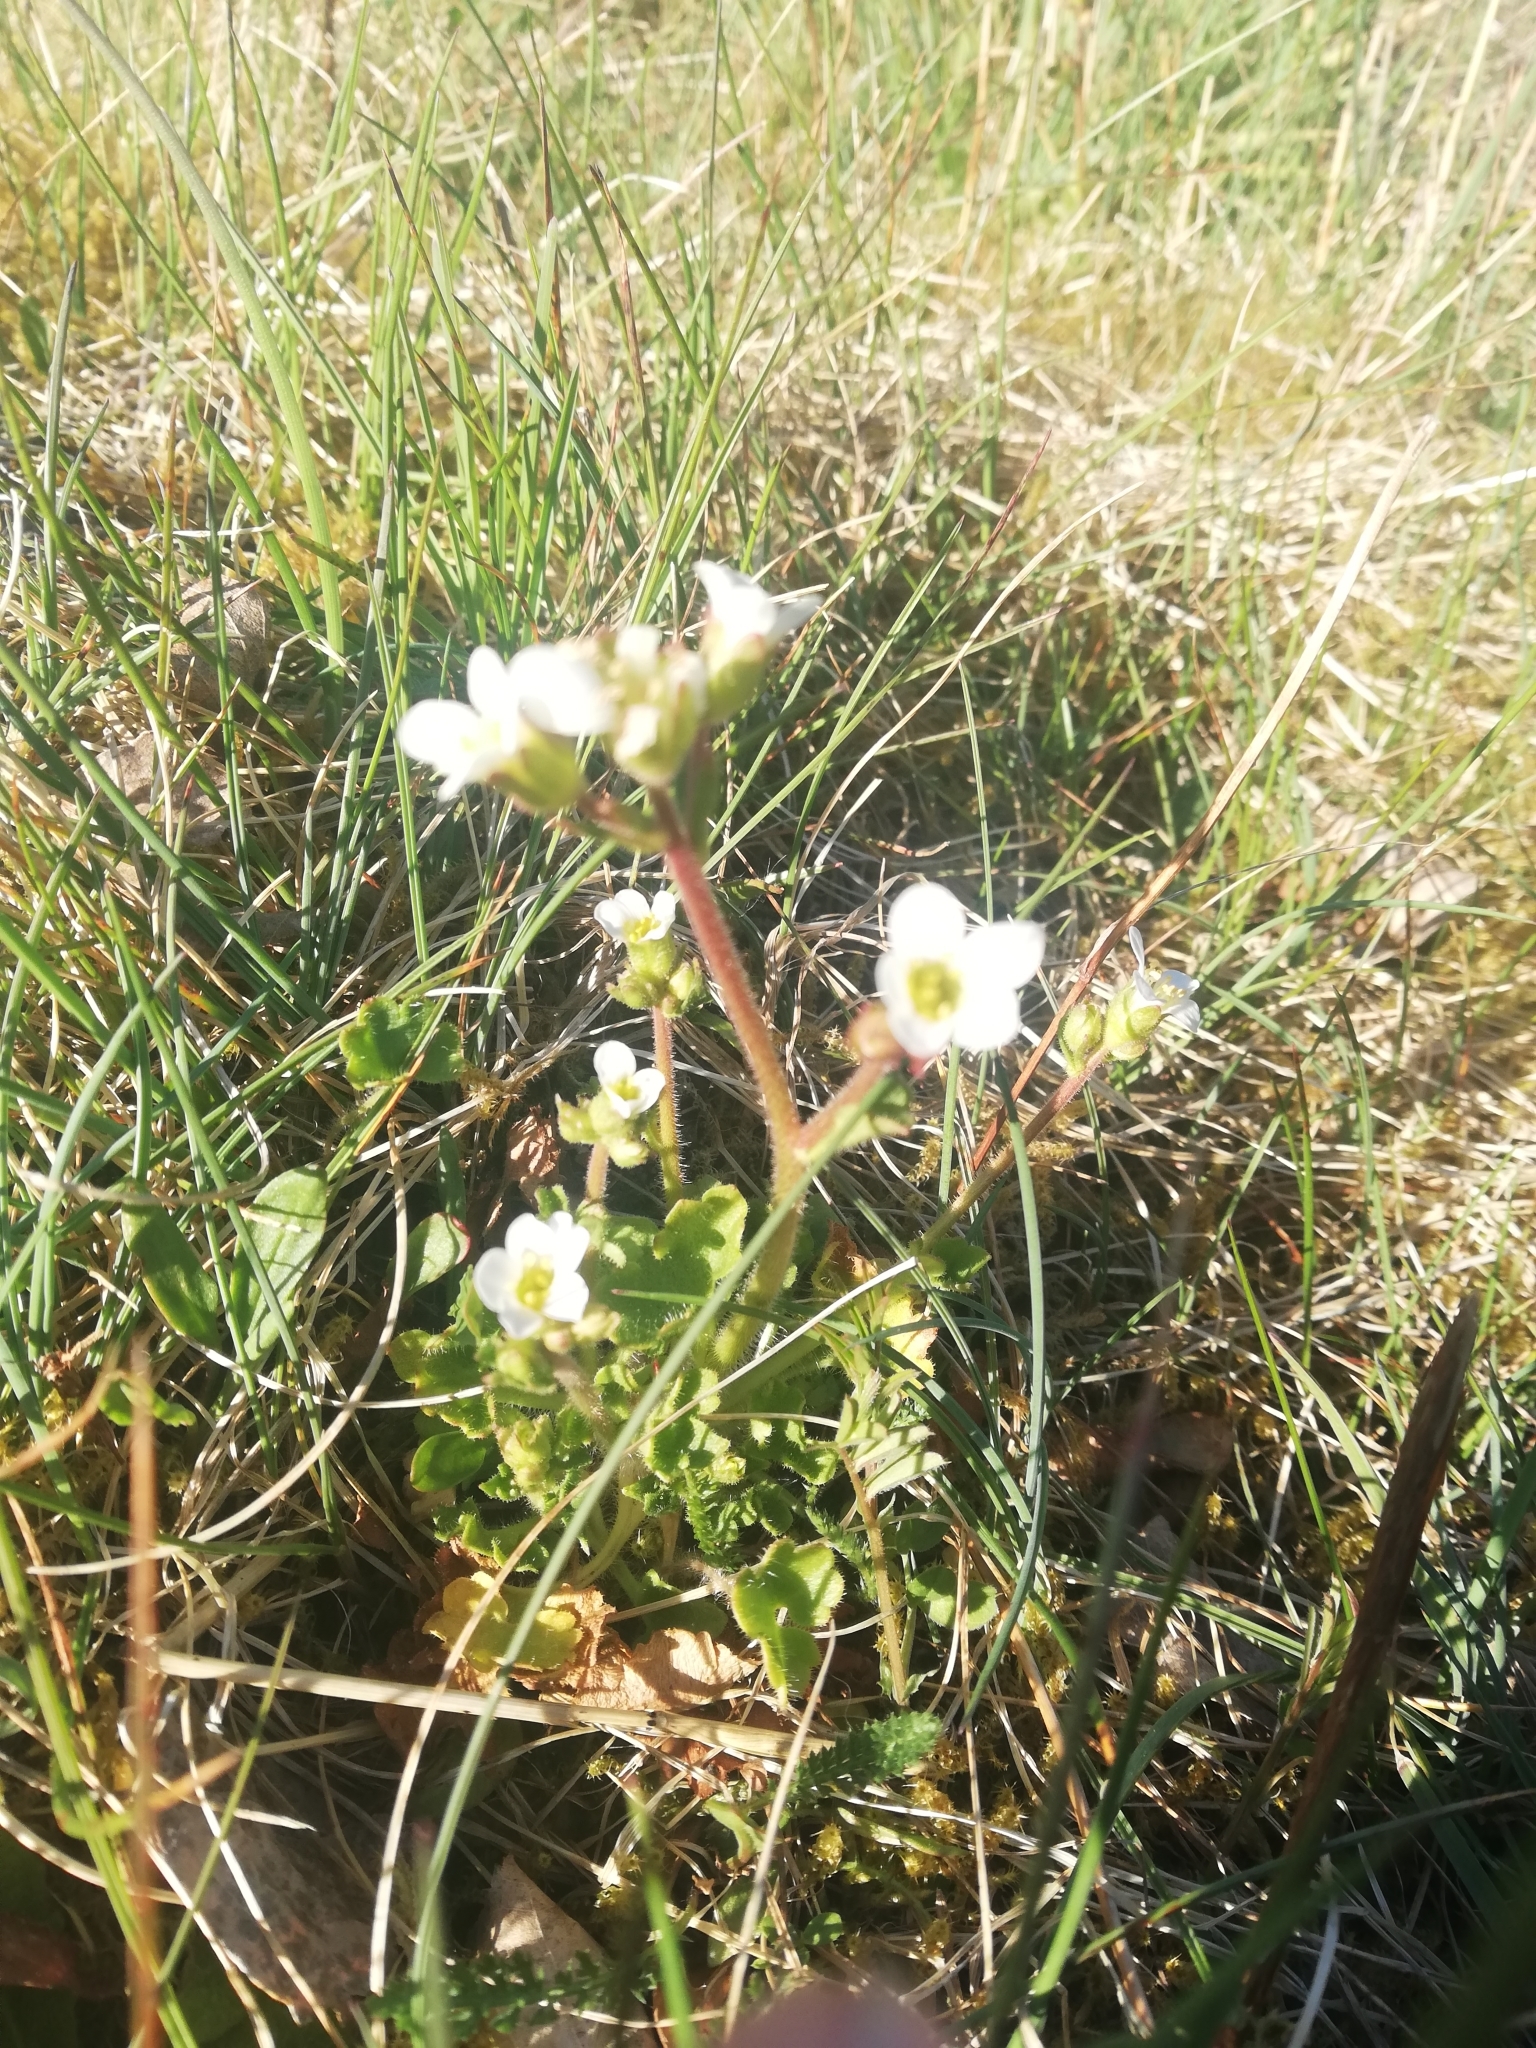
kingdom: Plantae
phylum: Tracheophyta
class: Magnoliopsida
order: Saxifragales
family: Saxifragaceae
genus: Saxifraga
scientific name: Saxifraga granulata
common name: Meadow saxifrage
